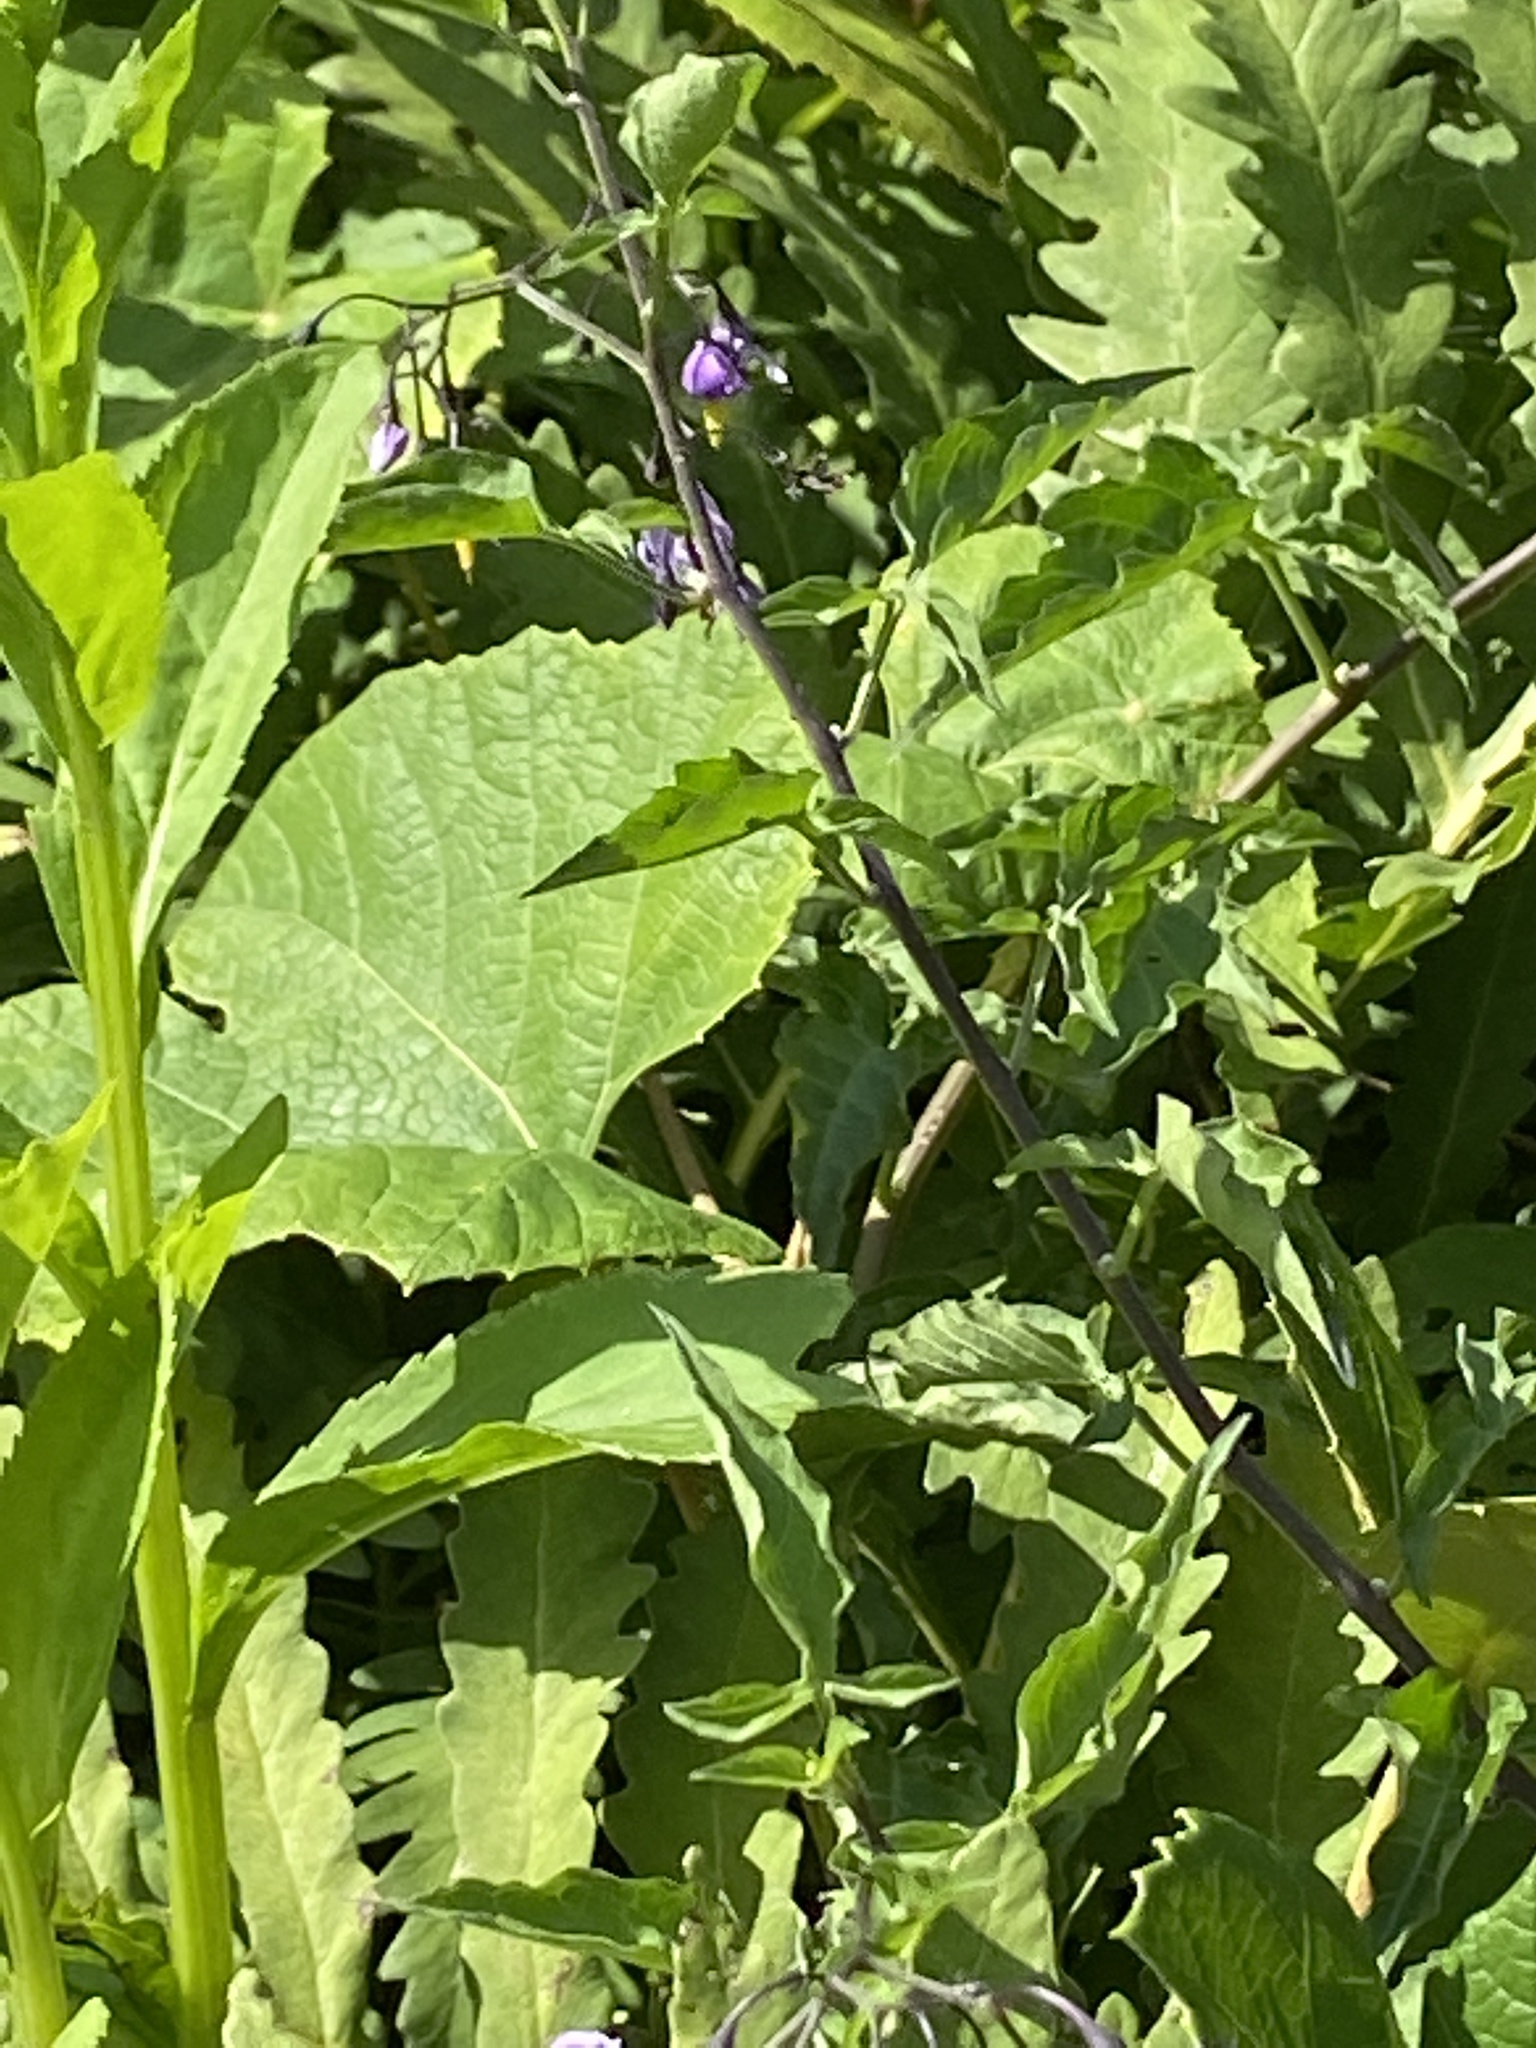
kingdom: Plantae
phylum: Tracheophyta
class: Magnoliopsida
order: Solanales
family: Solanaceae
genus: Solanum
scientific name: Solanum dulcamara
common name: Climbing nightshade
